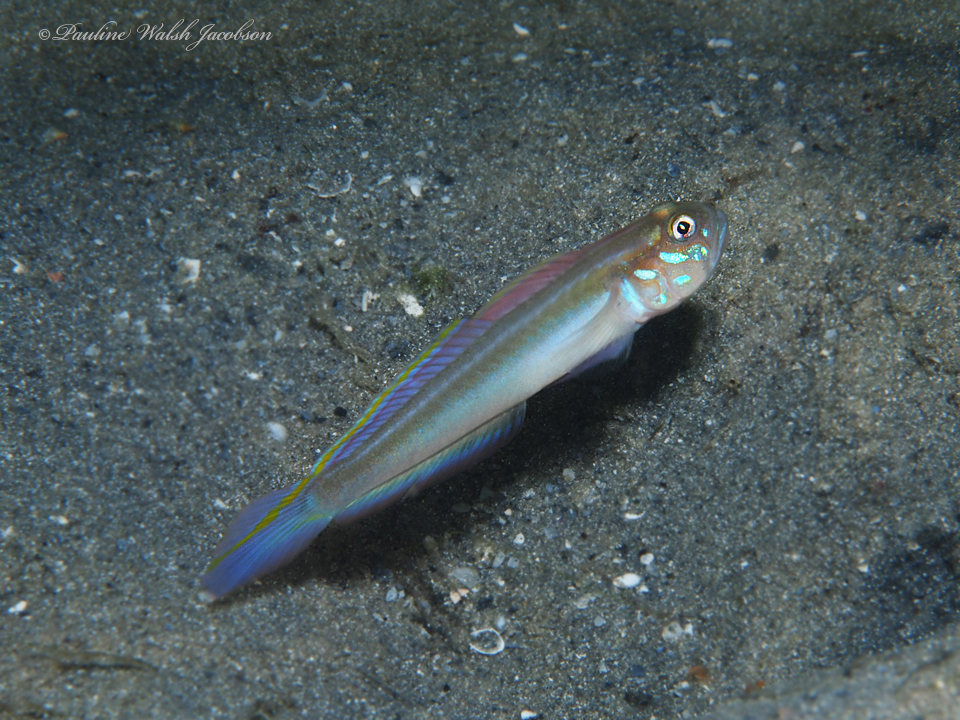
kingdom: Animalia
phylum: Chordata
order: Perciformes
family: Gobiidae
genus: Microgobius
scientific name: Microgobius microlepis
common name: Banner goby
